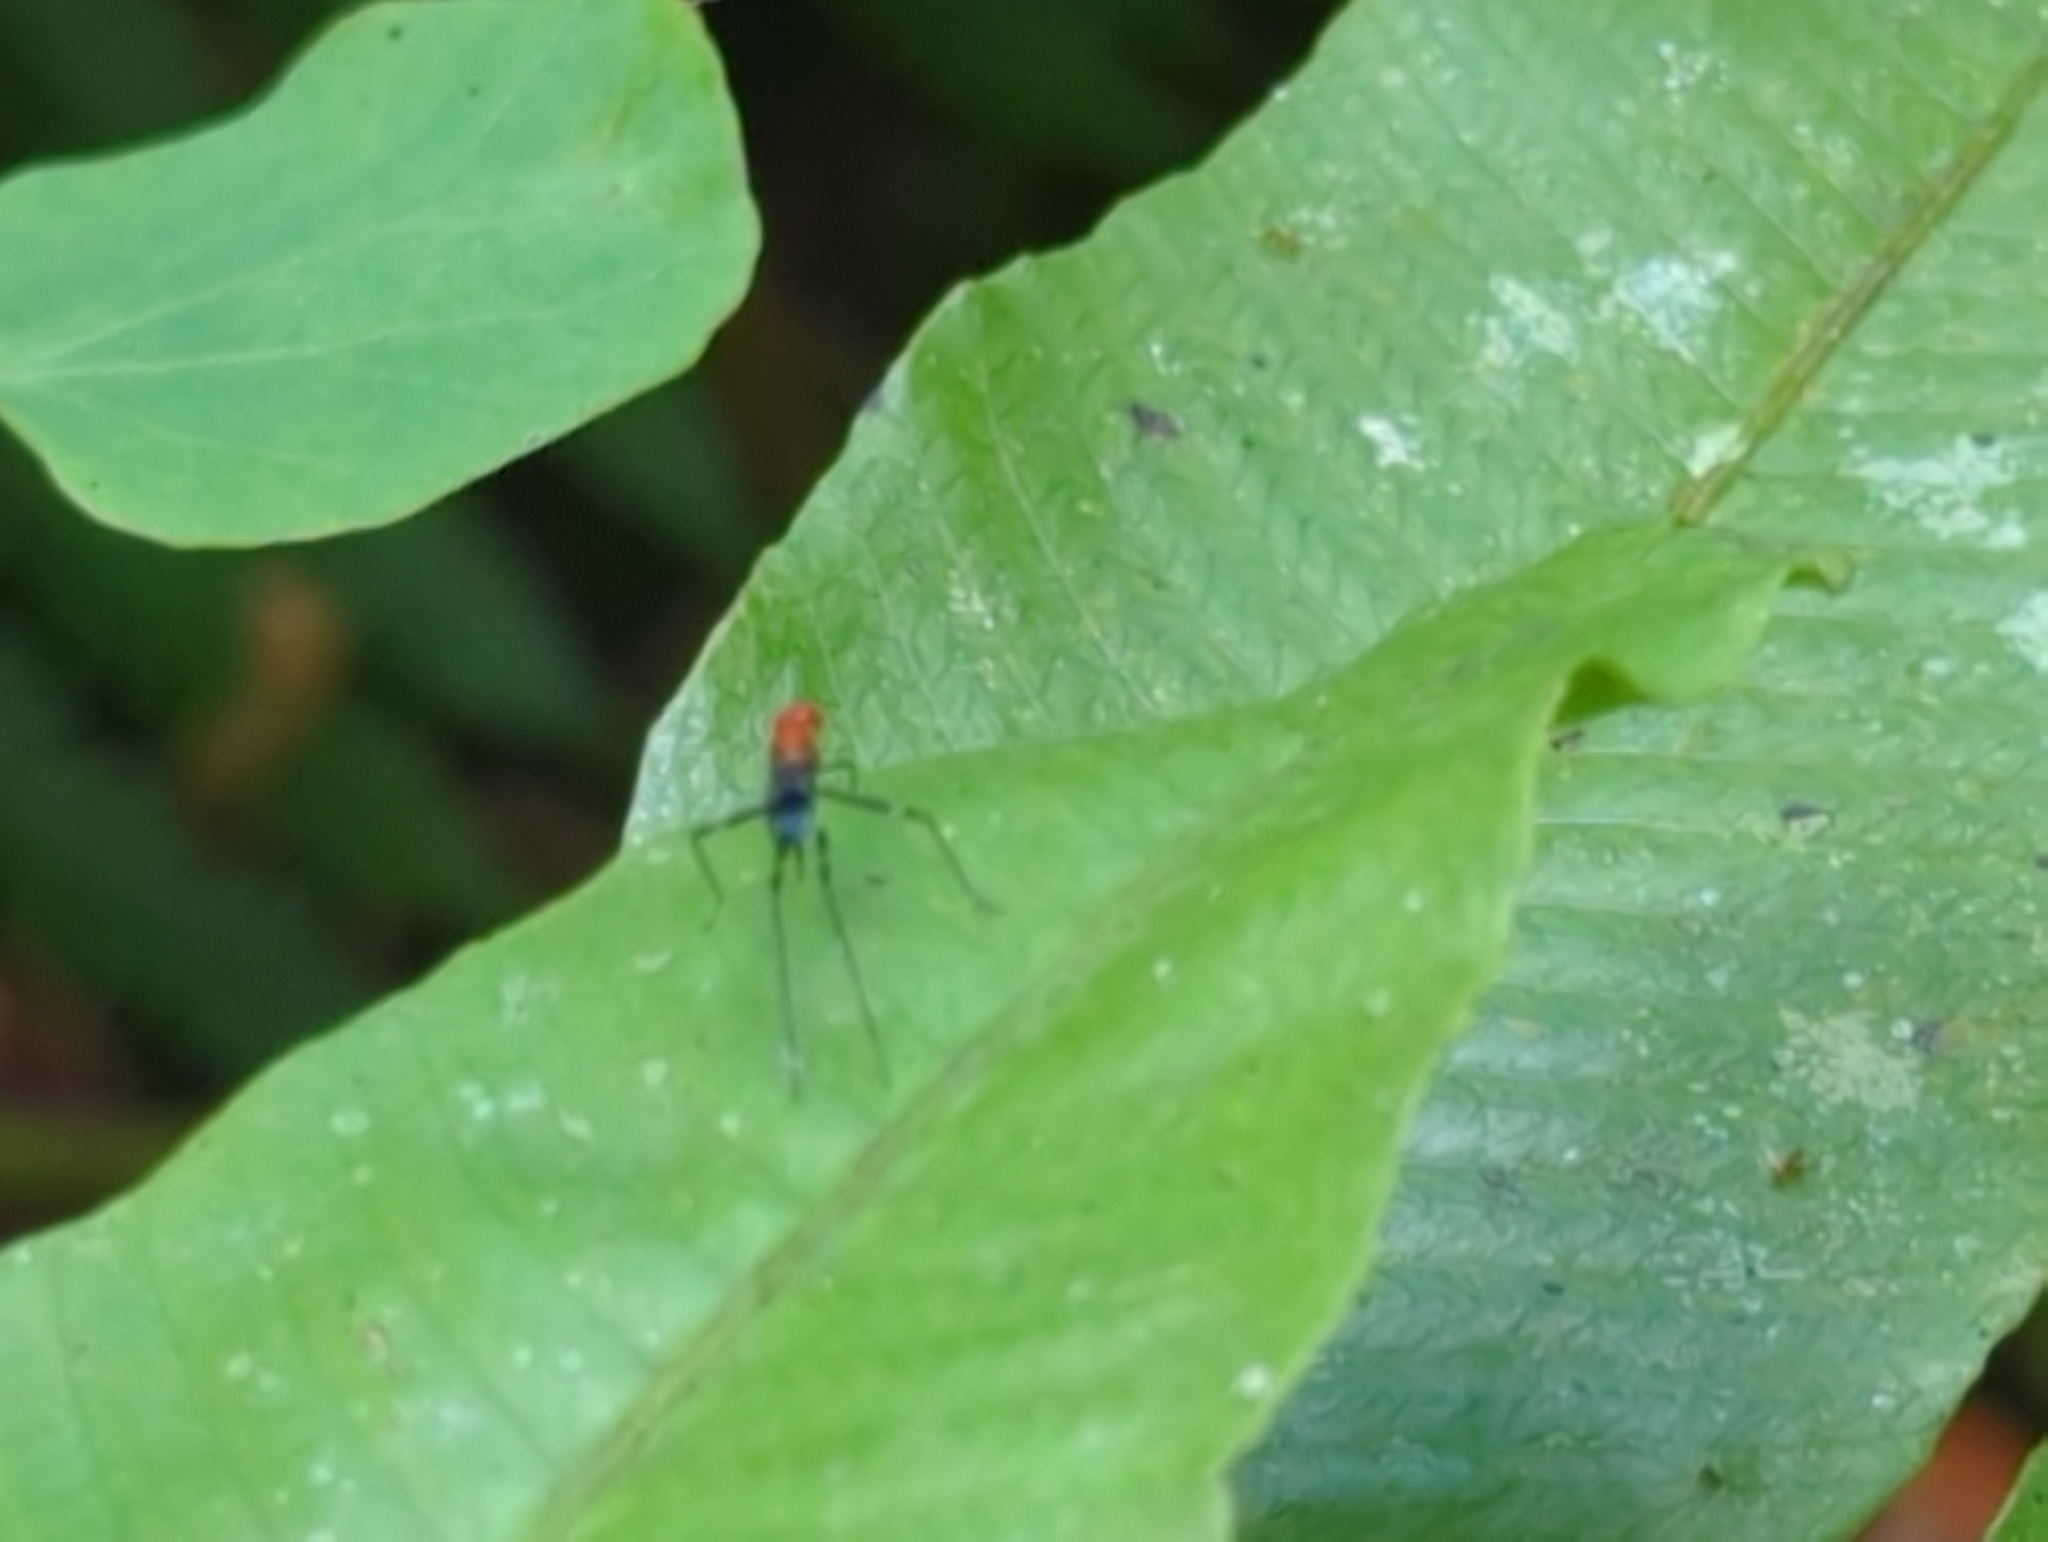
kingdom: Animalia
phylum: Arthropoda
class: Insecta
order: Diptera
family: Micropezidae
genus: Grallipeza
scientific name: Grallipeza scurra
